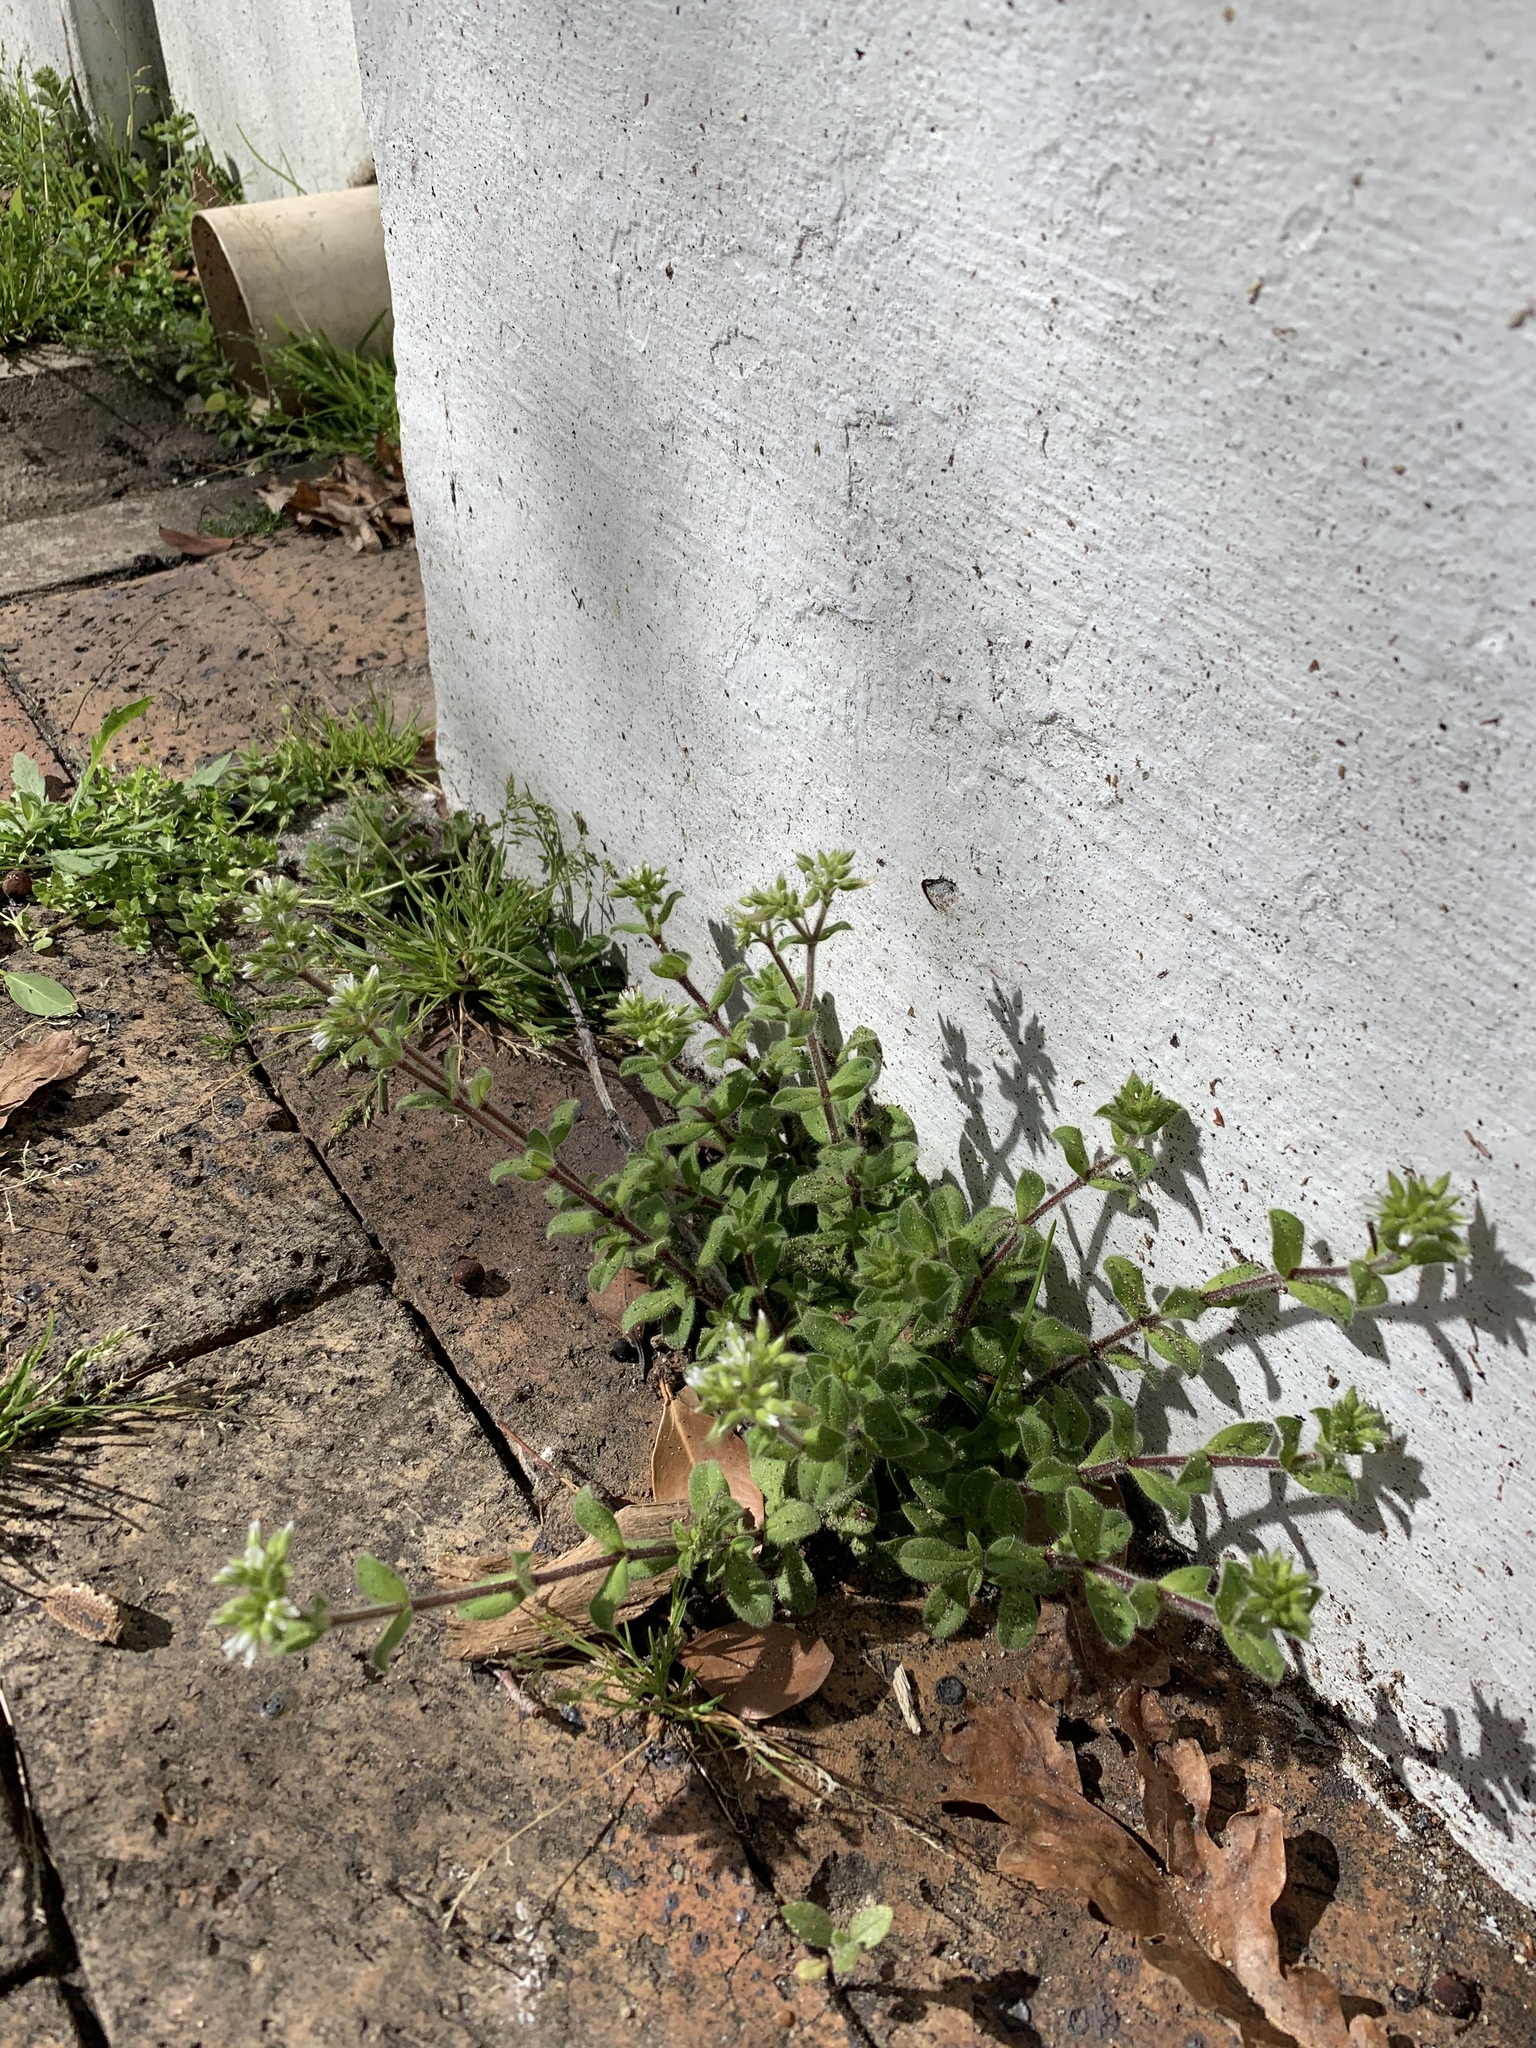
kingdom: Plantae
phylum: Tracheophyta
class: Magnoliopsida
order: Caryophyllales
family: Caryophyllaceae
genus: Cerastium
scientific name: Cerastium glomeratum
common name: Sticky chickweed
